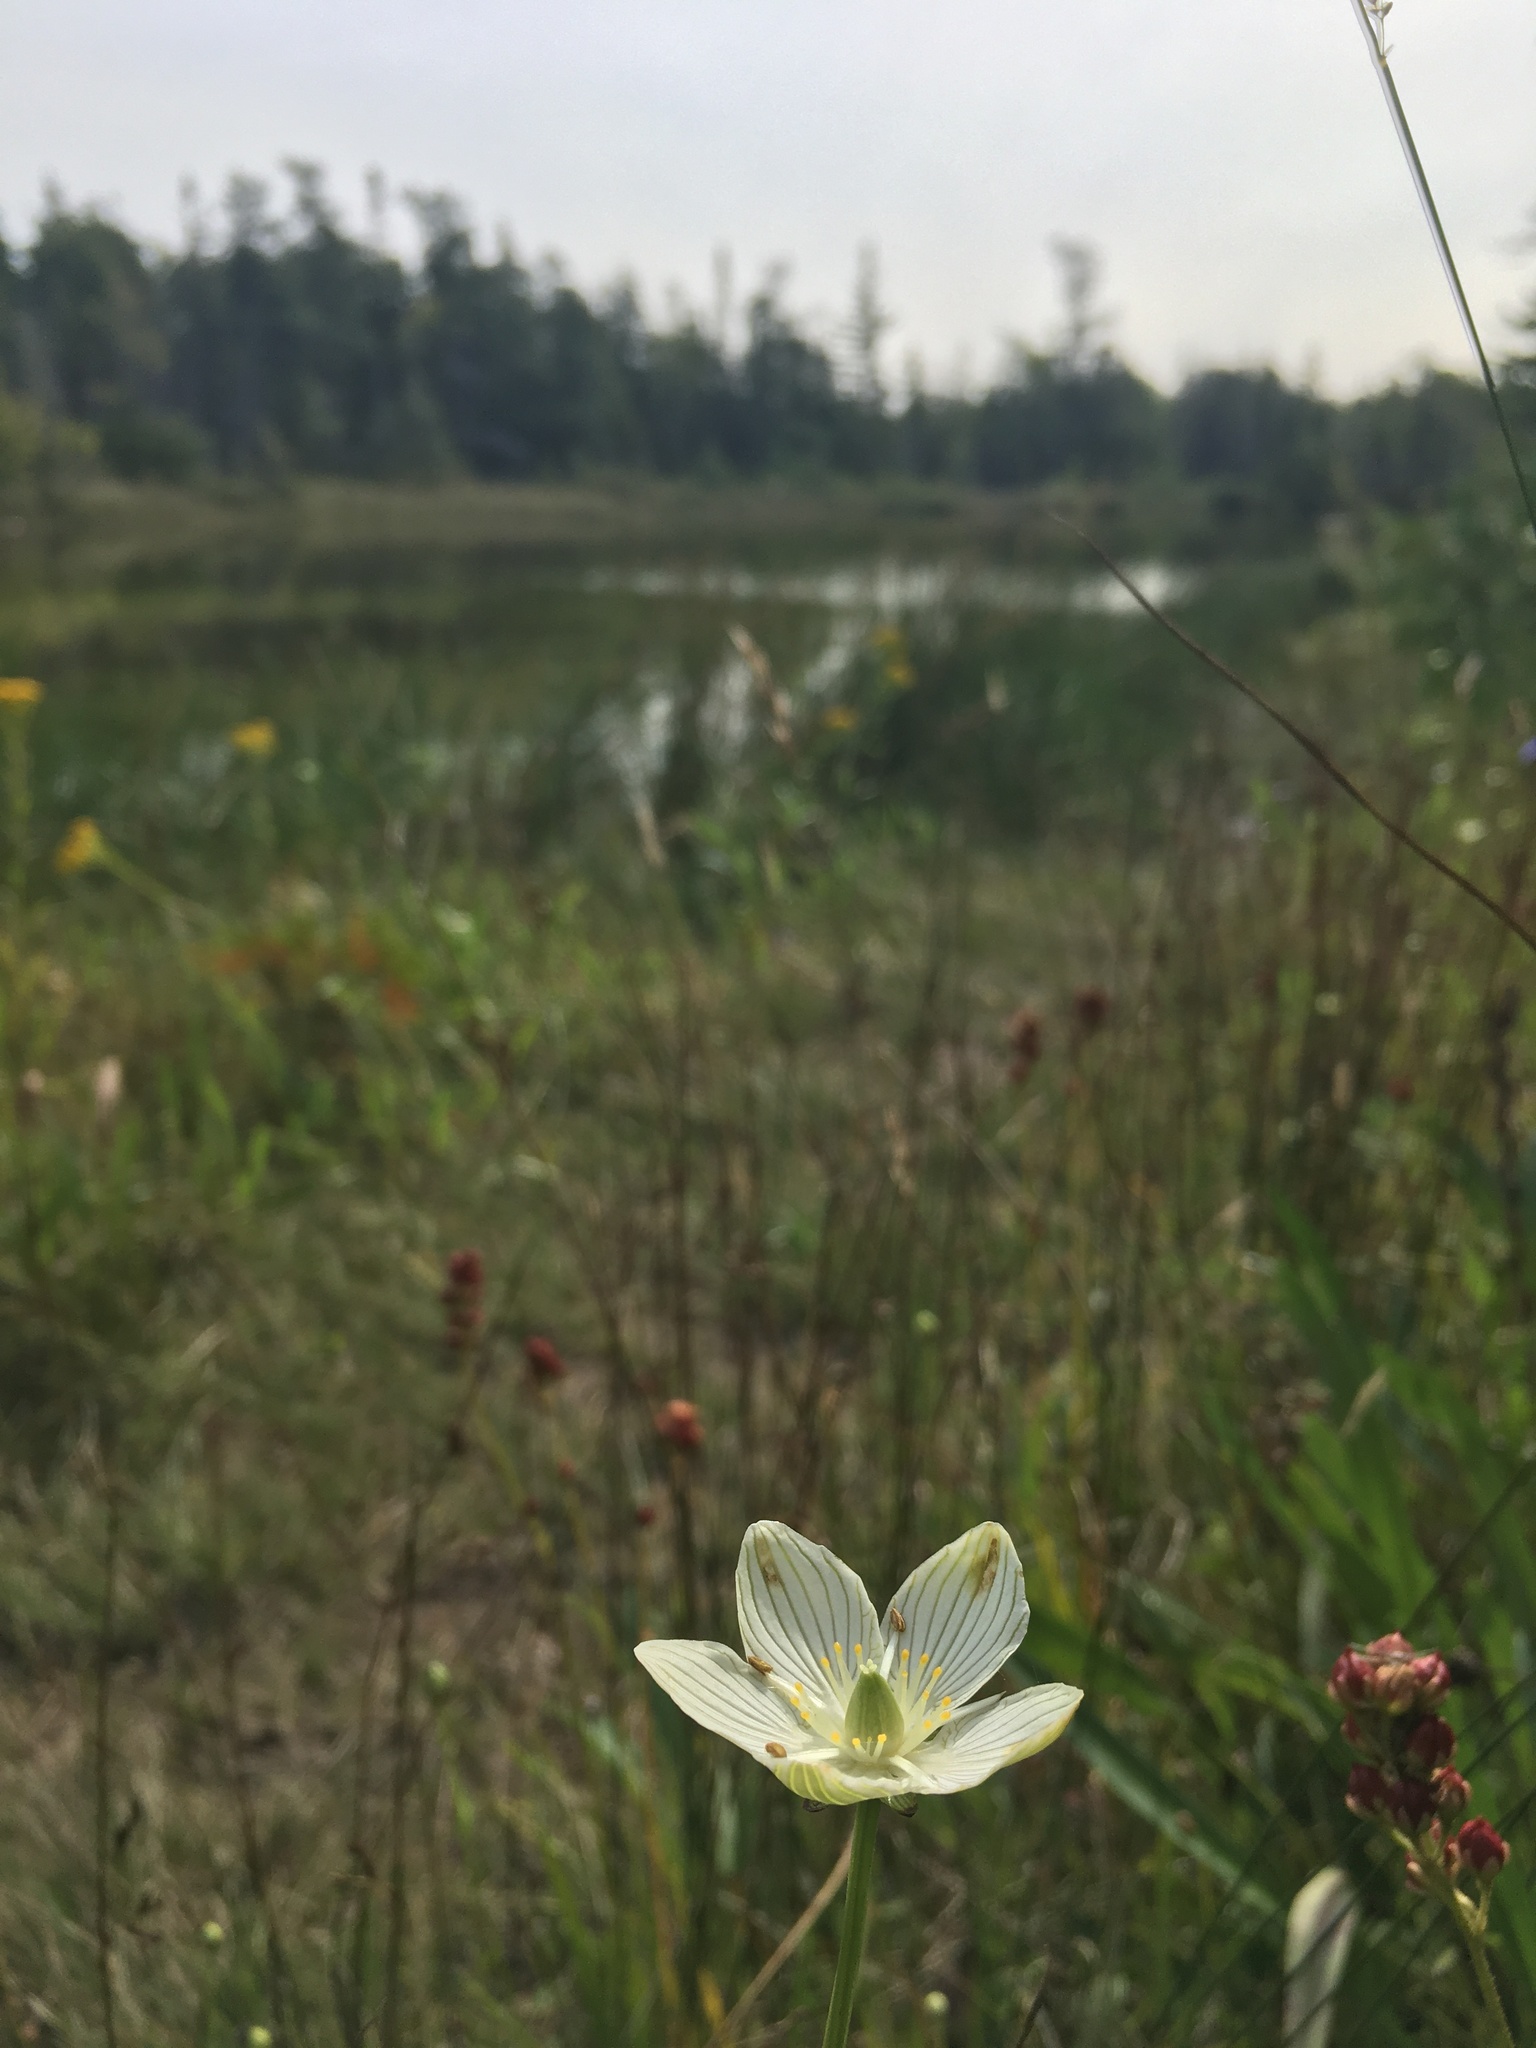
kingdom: Plantae
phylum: Tracheophyta
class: Magnoliopsida
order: Celastrales
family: Parnassiaceae
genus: Parnassia
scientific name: Parnassia glauca
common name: American grass-of-parnassus
